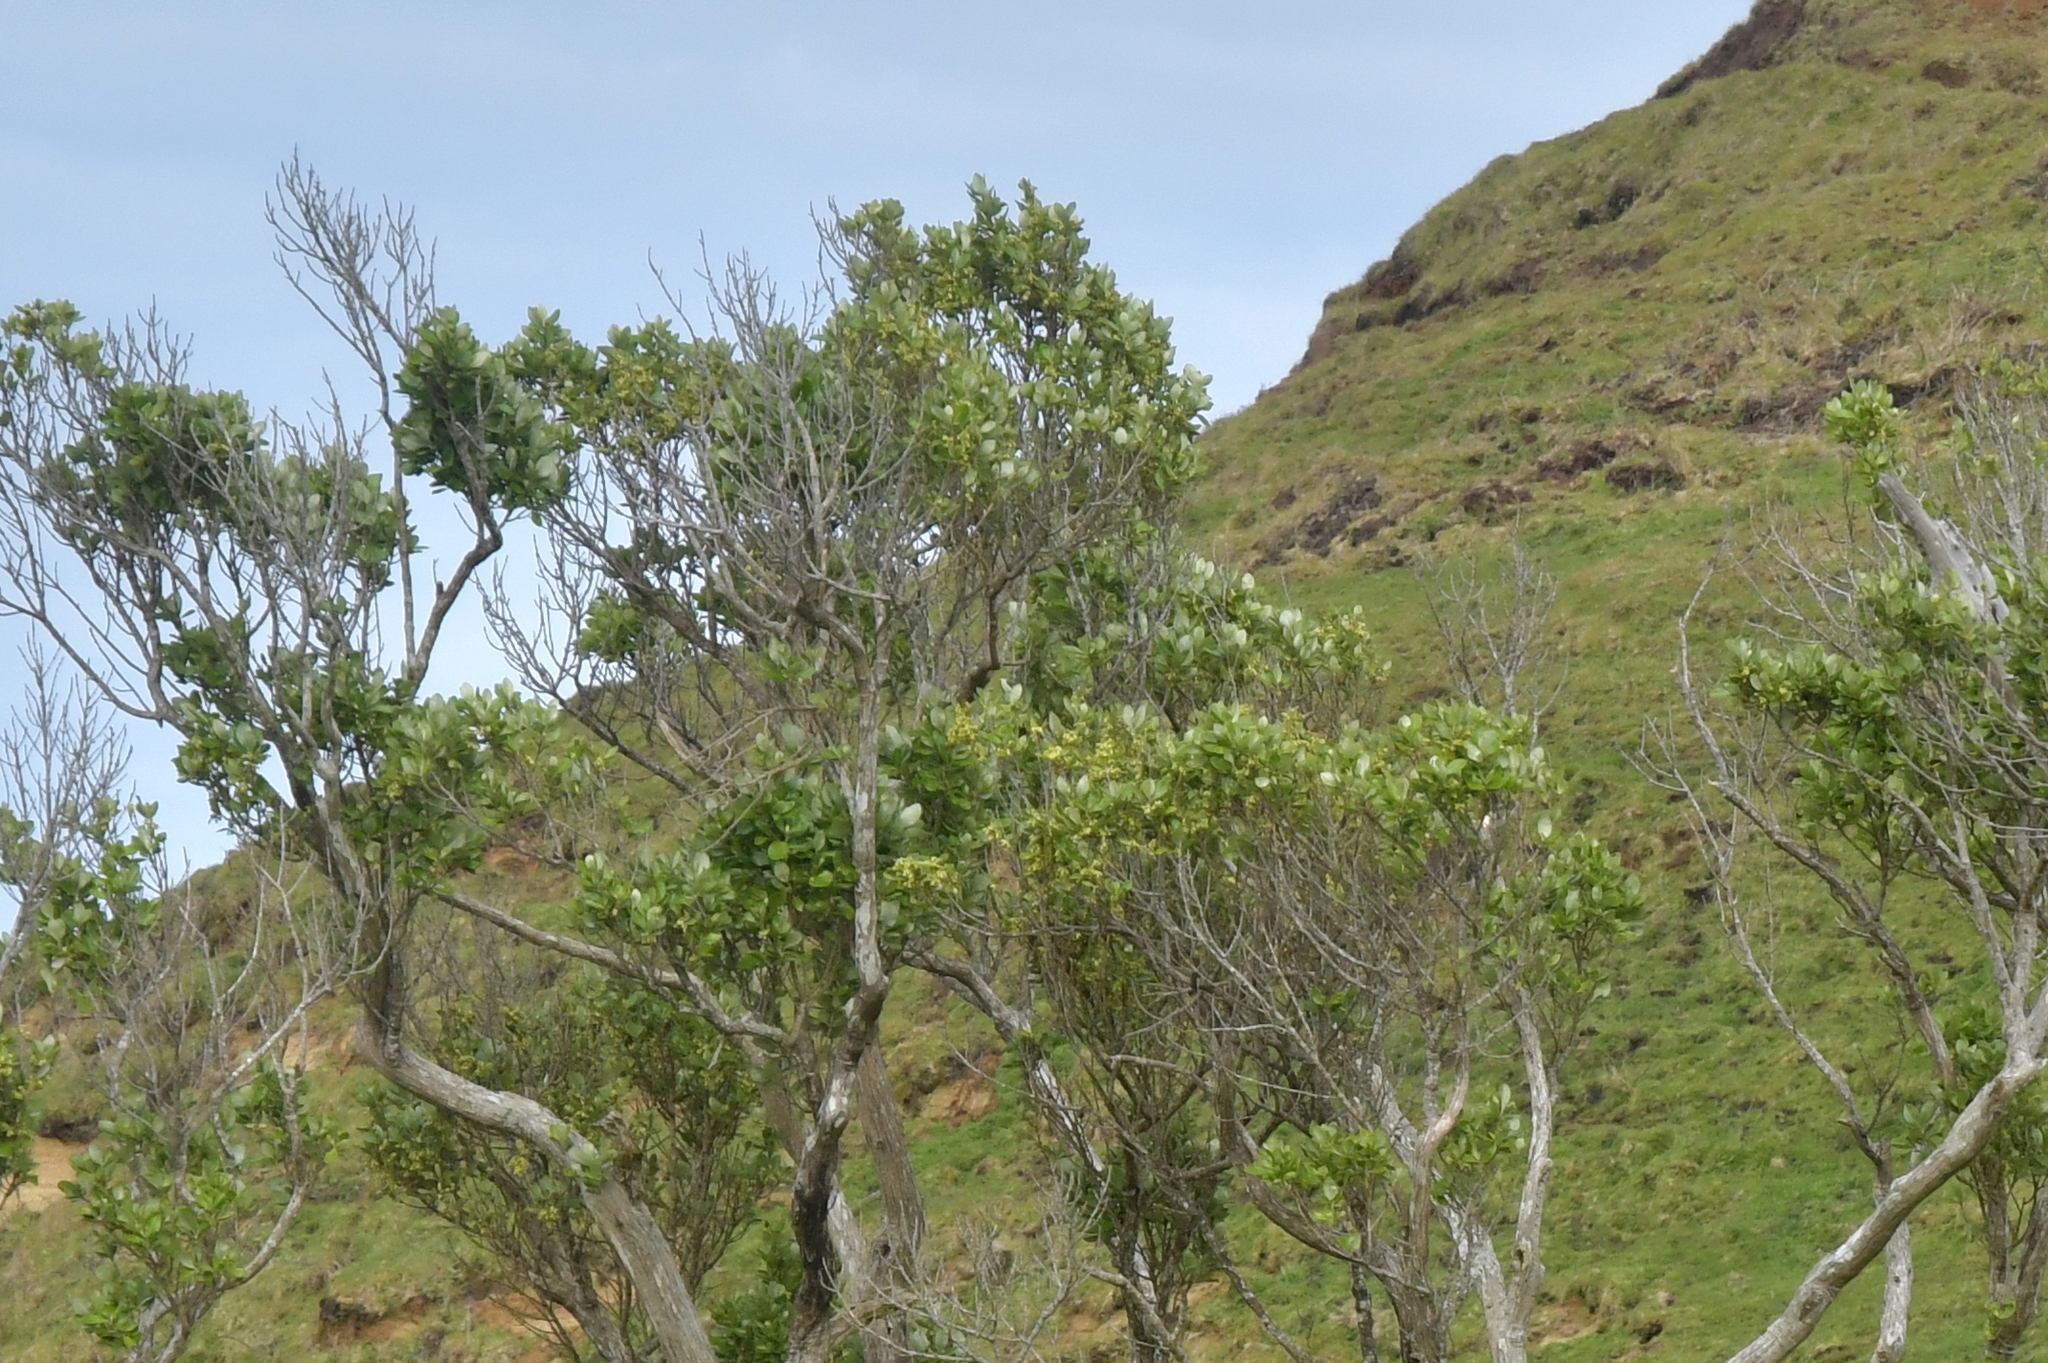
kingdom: Plantae
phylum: Tracheophyta
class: Magnoliopsida
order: Asterales
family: Asteraceae
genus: Olearia
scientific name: Olearia traversiorum
